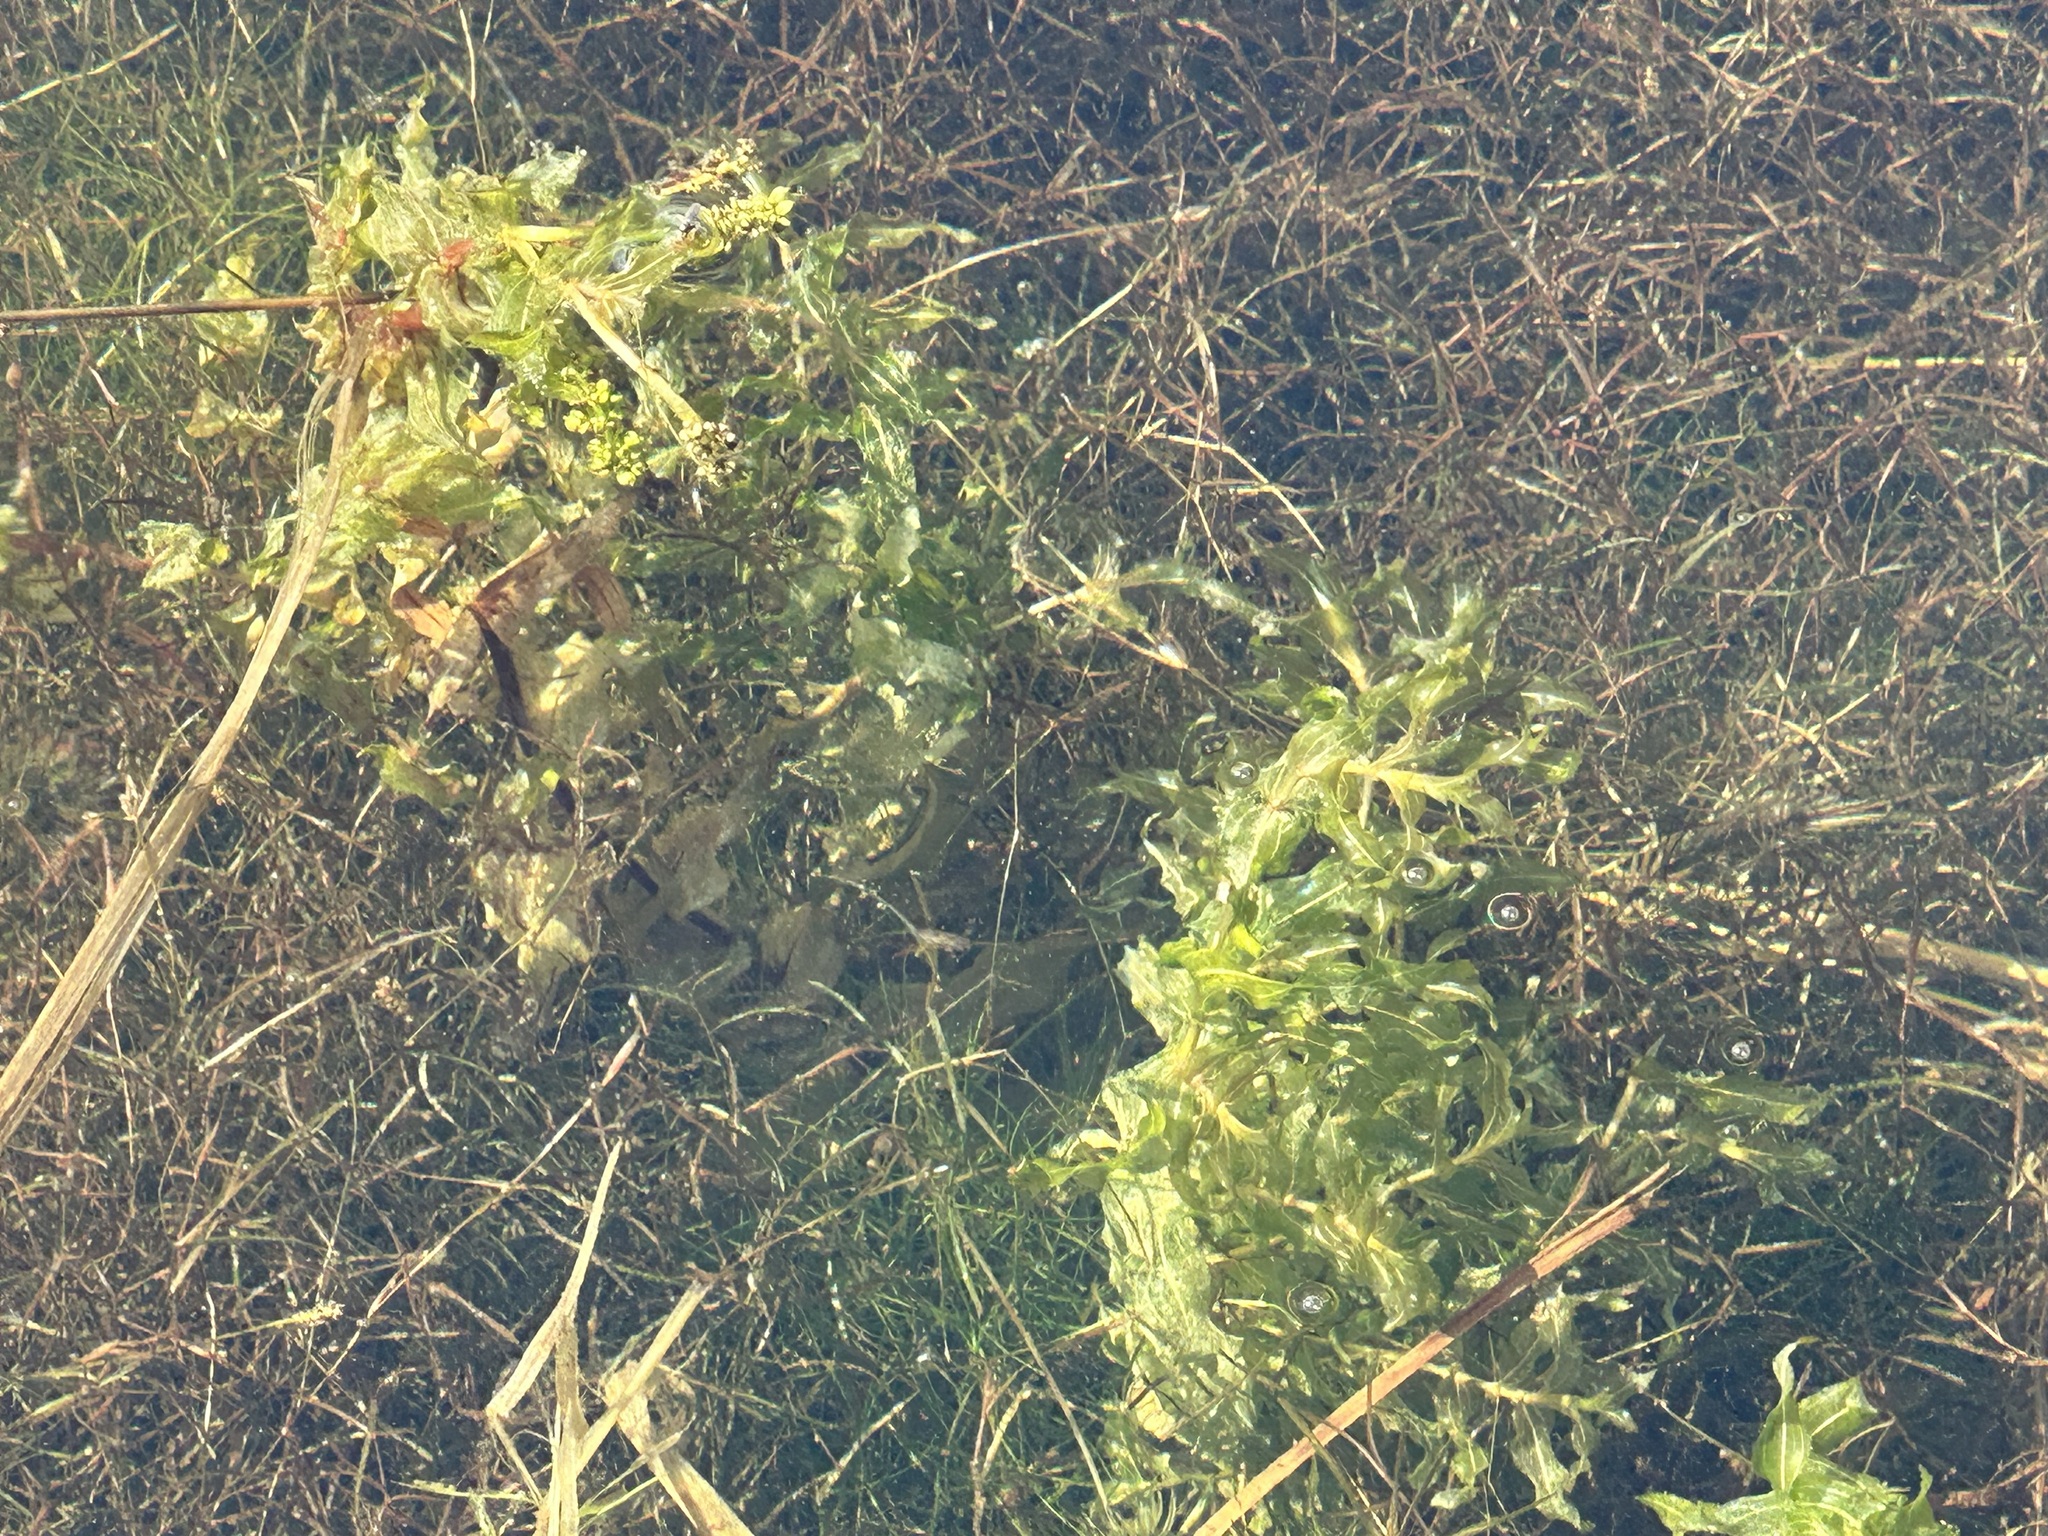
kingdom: Plantae
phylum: Tracheophyta
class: Liliopsida
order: Alismatales
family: Potamogetonaceae
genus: Potamogeton
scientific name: Potamogeton richardsonii
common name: Richardson's pondweed
